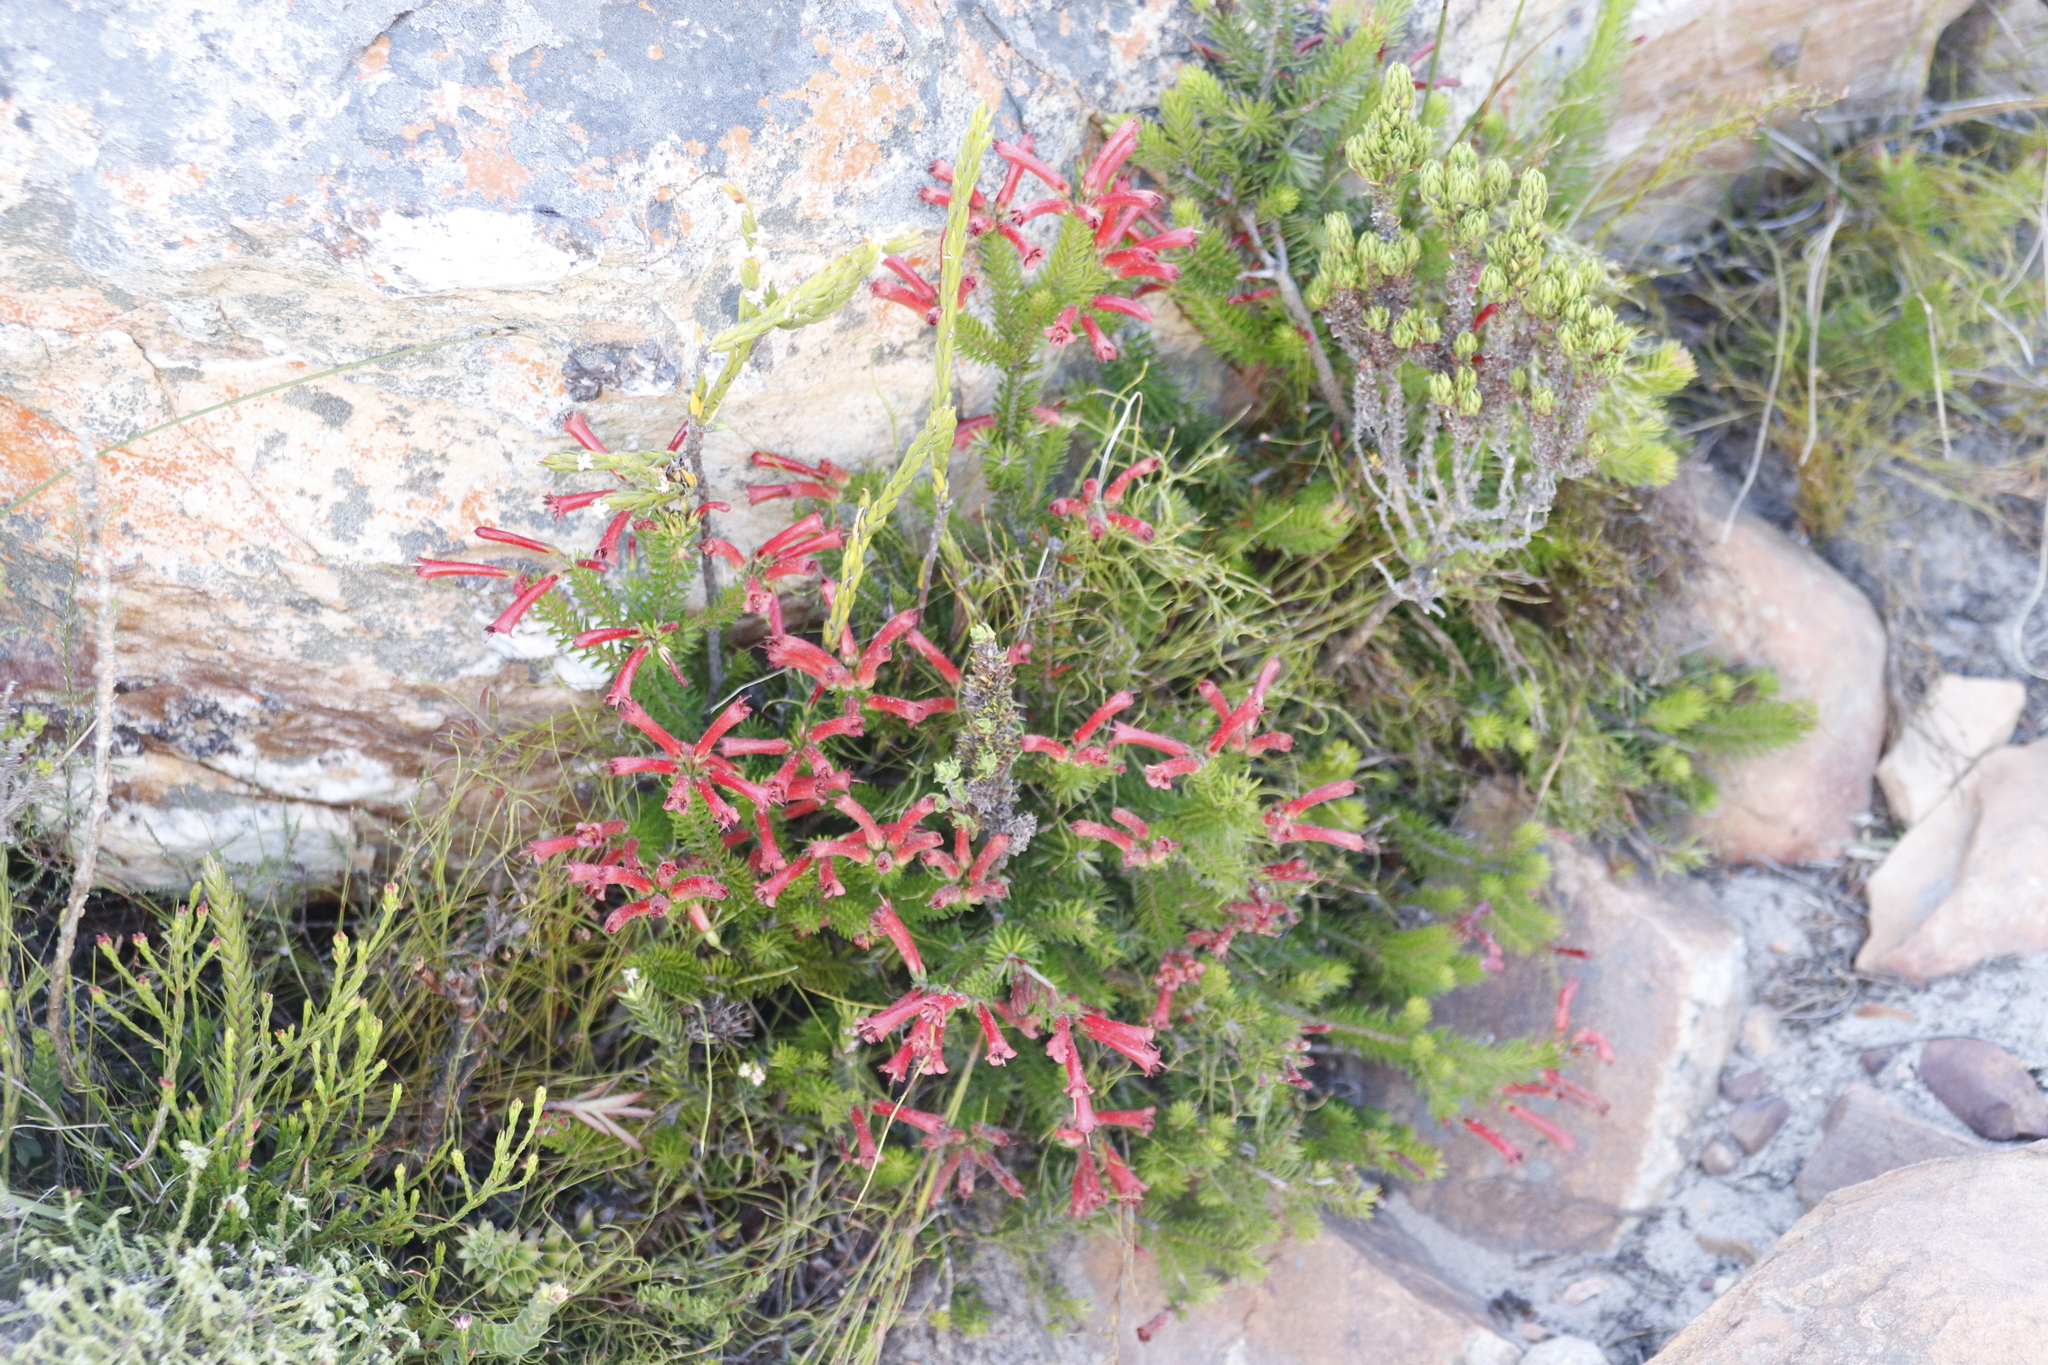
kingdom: Plantae
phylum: Tracheophyta
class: Magnoliopsida
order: Ericales
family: Ericaceae
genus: Erica
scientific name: Erica nevillei
